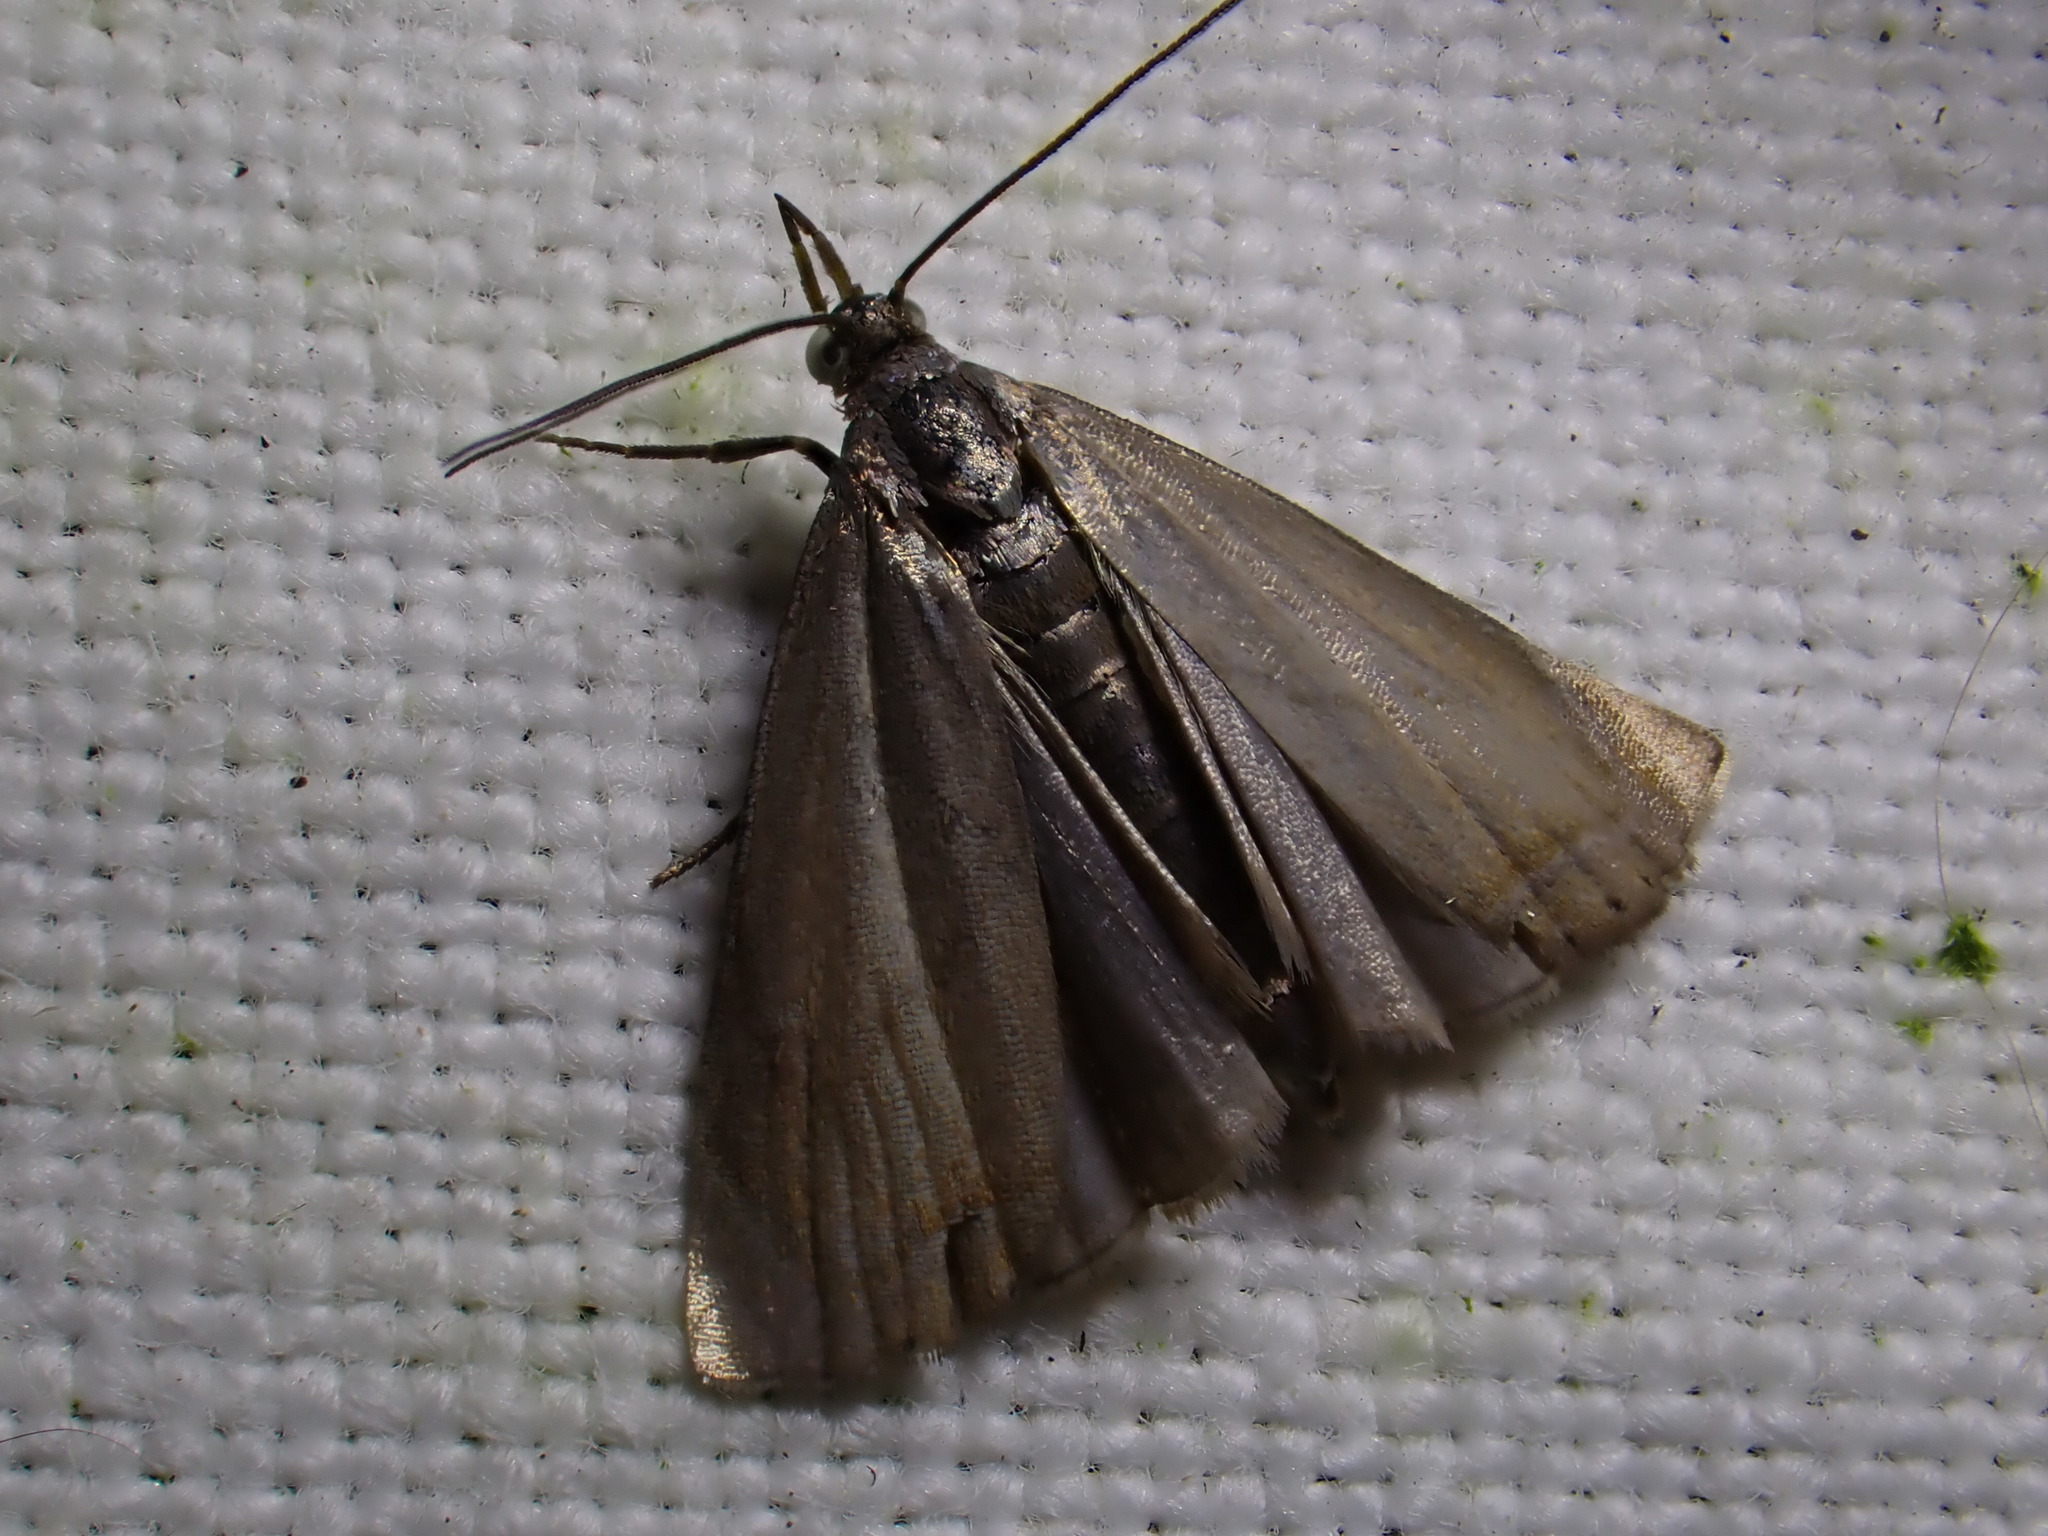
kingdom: Animalia
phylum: Arthropoda
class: Insecta
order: Lepidoptera
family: Crambidae
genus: Chrysoteuchia
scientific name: Chrysoteuchia culmella
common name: Garden grass-veneer
